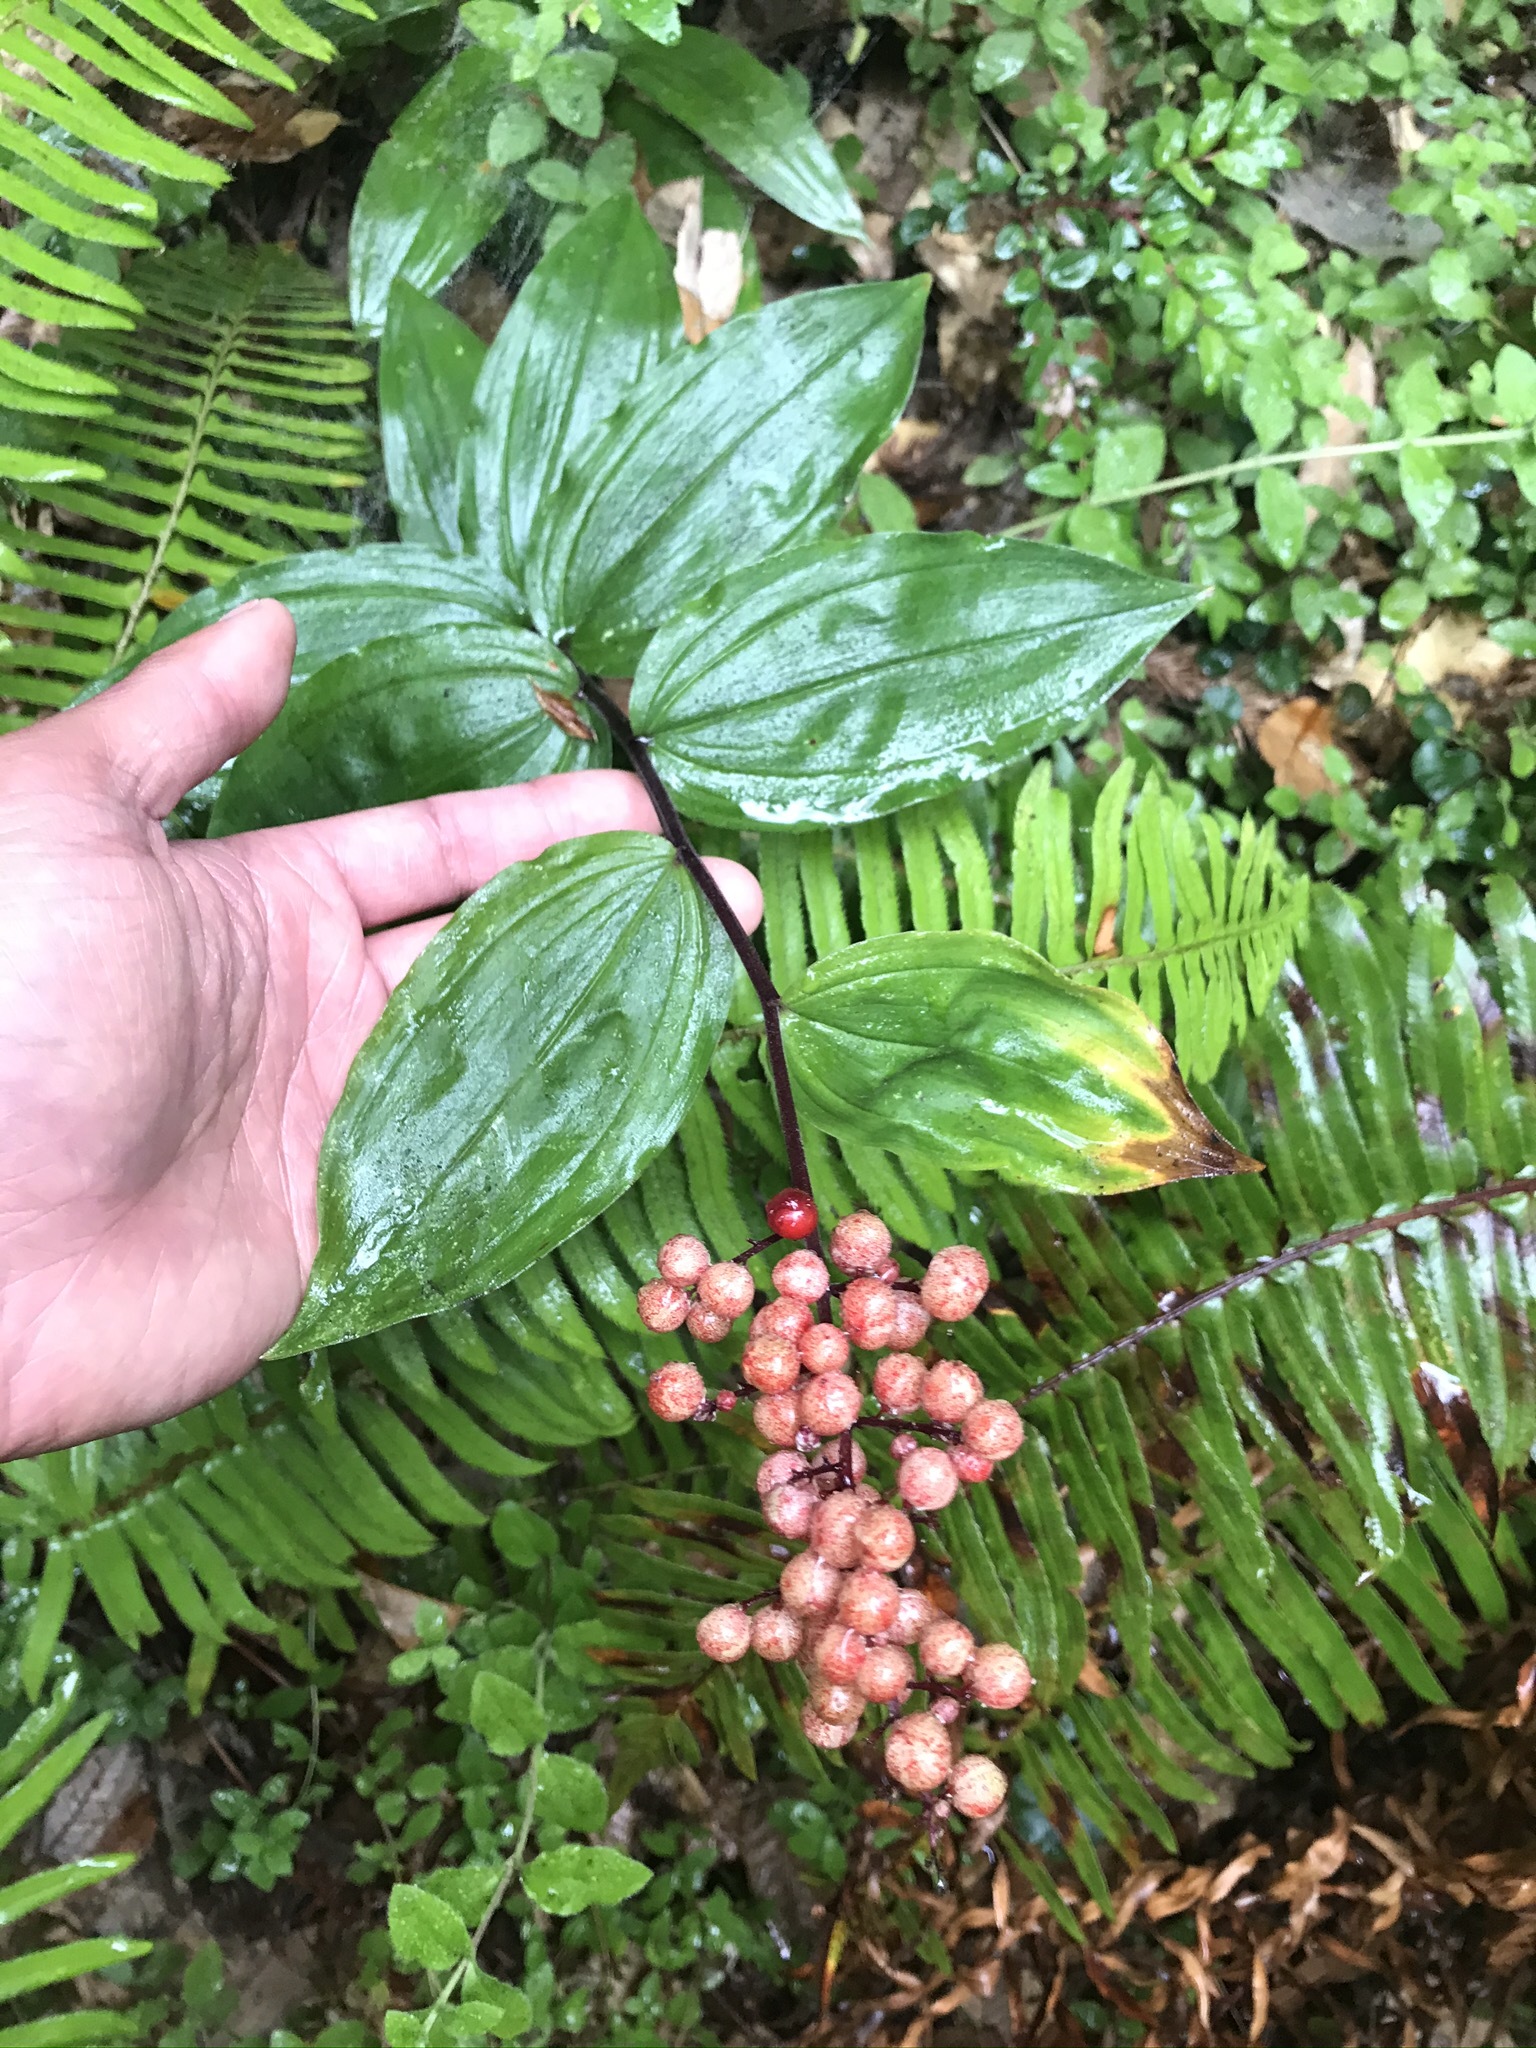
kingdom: Plantae
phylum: Tracheophyta
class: Liliopsida
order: Asparagales
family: Asparagaceae
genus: Maianthemum
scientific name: Maianthemum racemosum
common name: False spikenard
